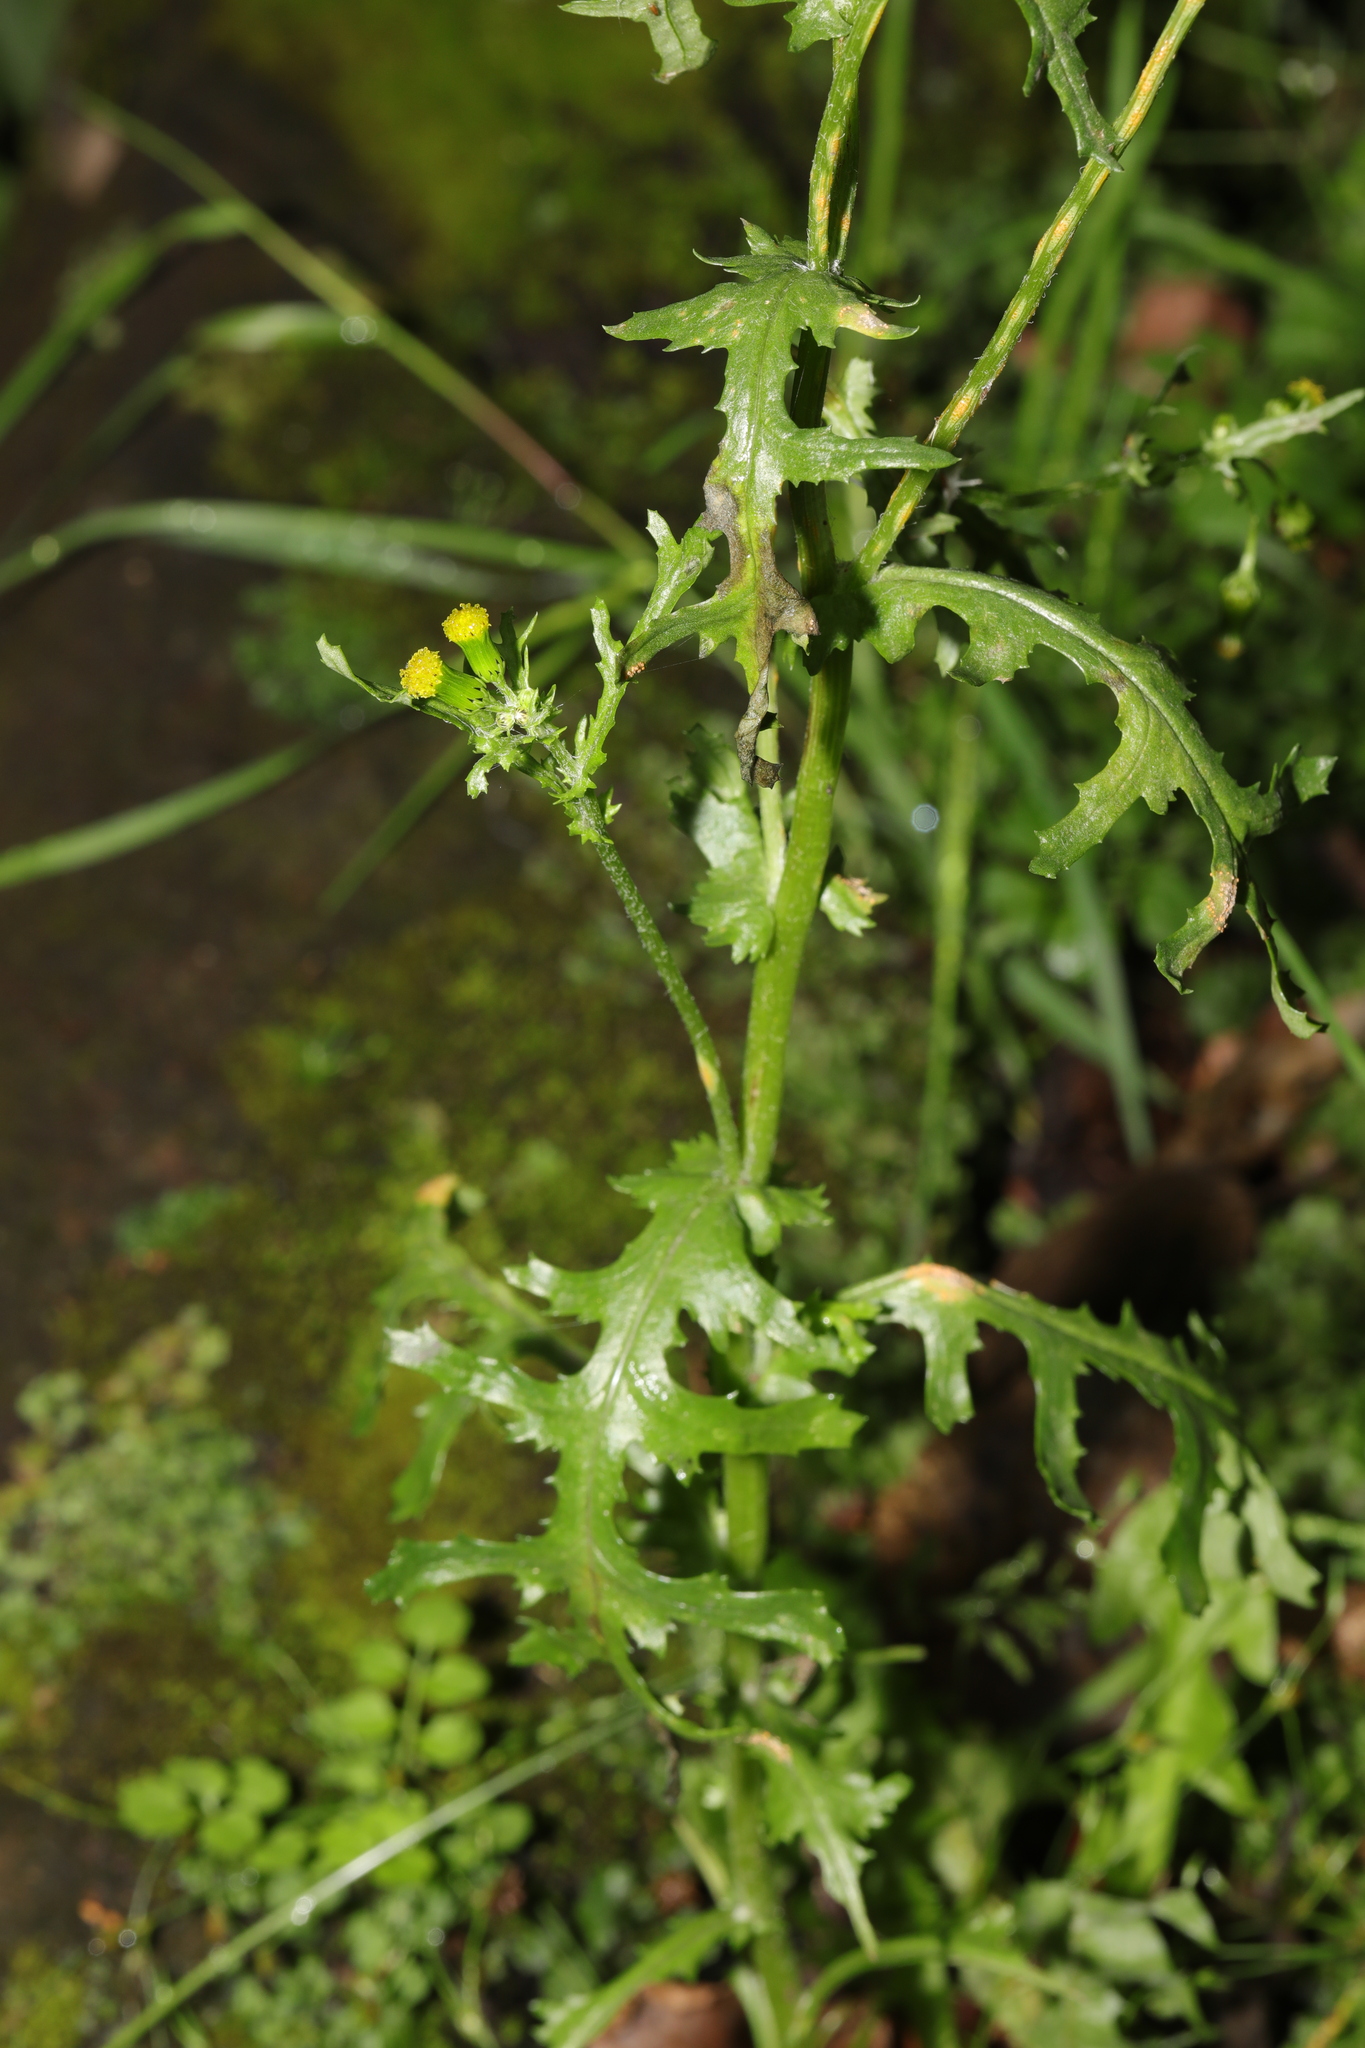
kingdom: Plantae
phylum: Tracheophyta
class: Magnoliopsida
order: Asterales
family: Asteraceae
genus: Senecio
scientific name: Senecio vulgaris
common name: Old-man-in-the-spring
